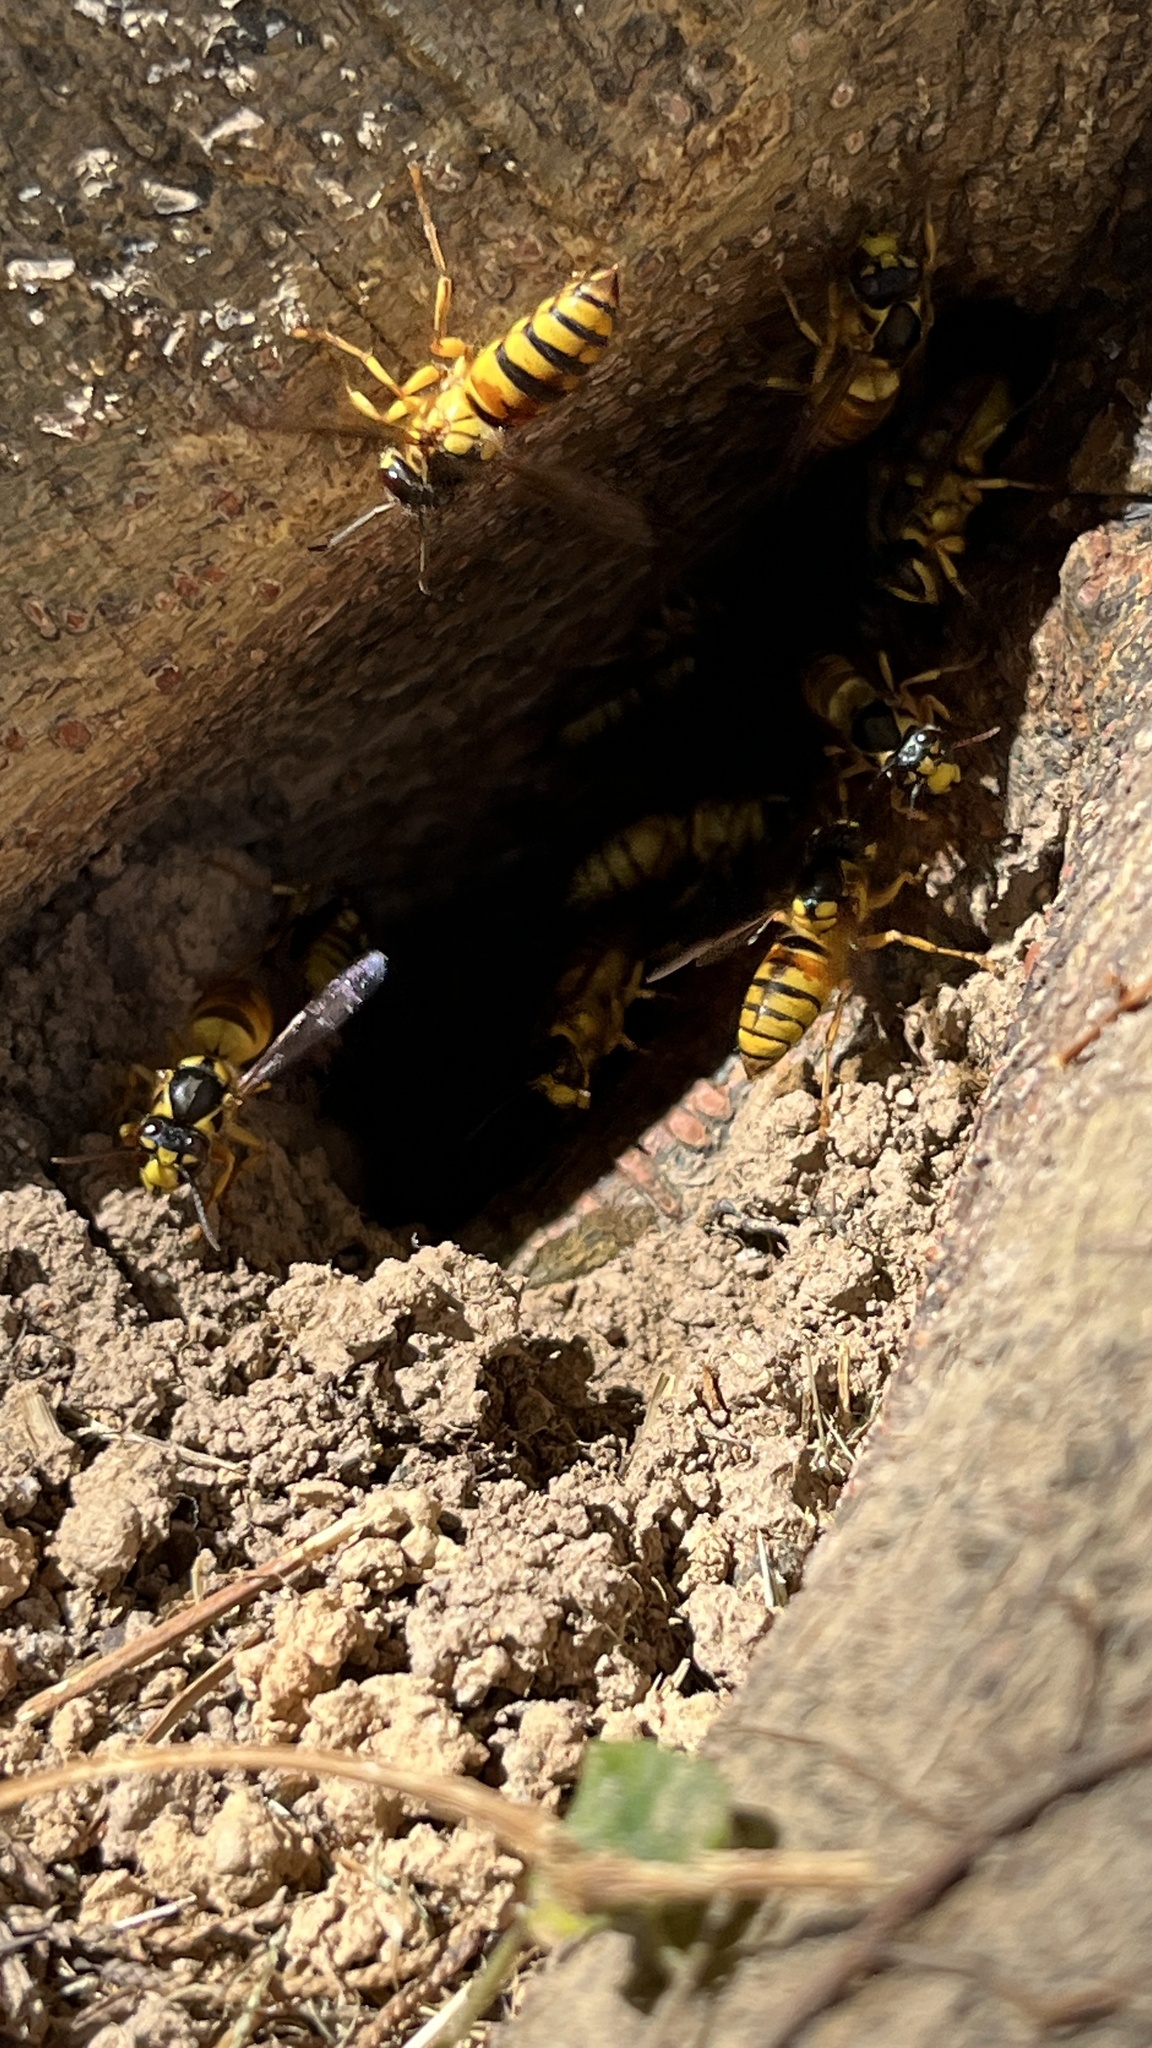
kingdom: Animalia
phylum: Arthropoda
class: Insecta
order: Hymenoptera
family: Vespidae
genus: Vespa
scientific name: Vespa bicolor
